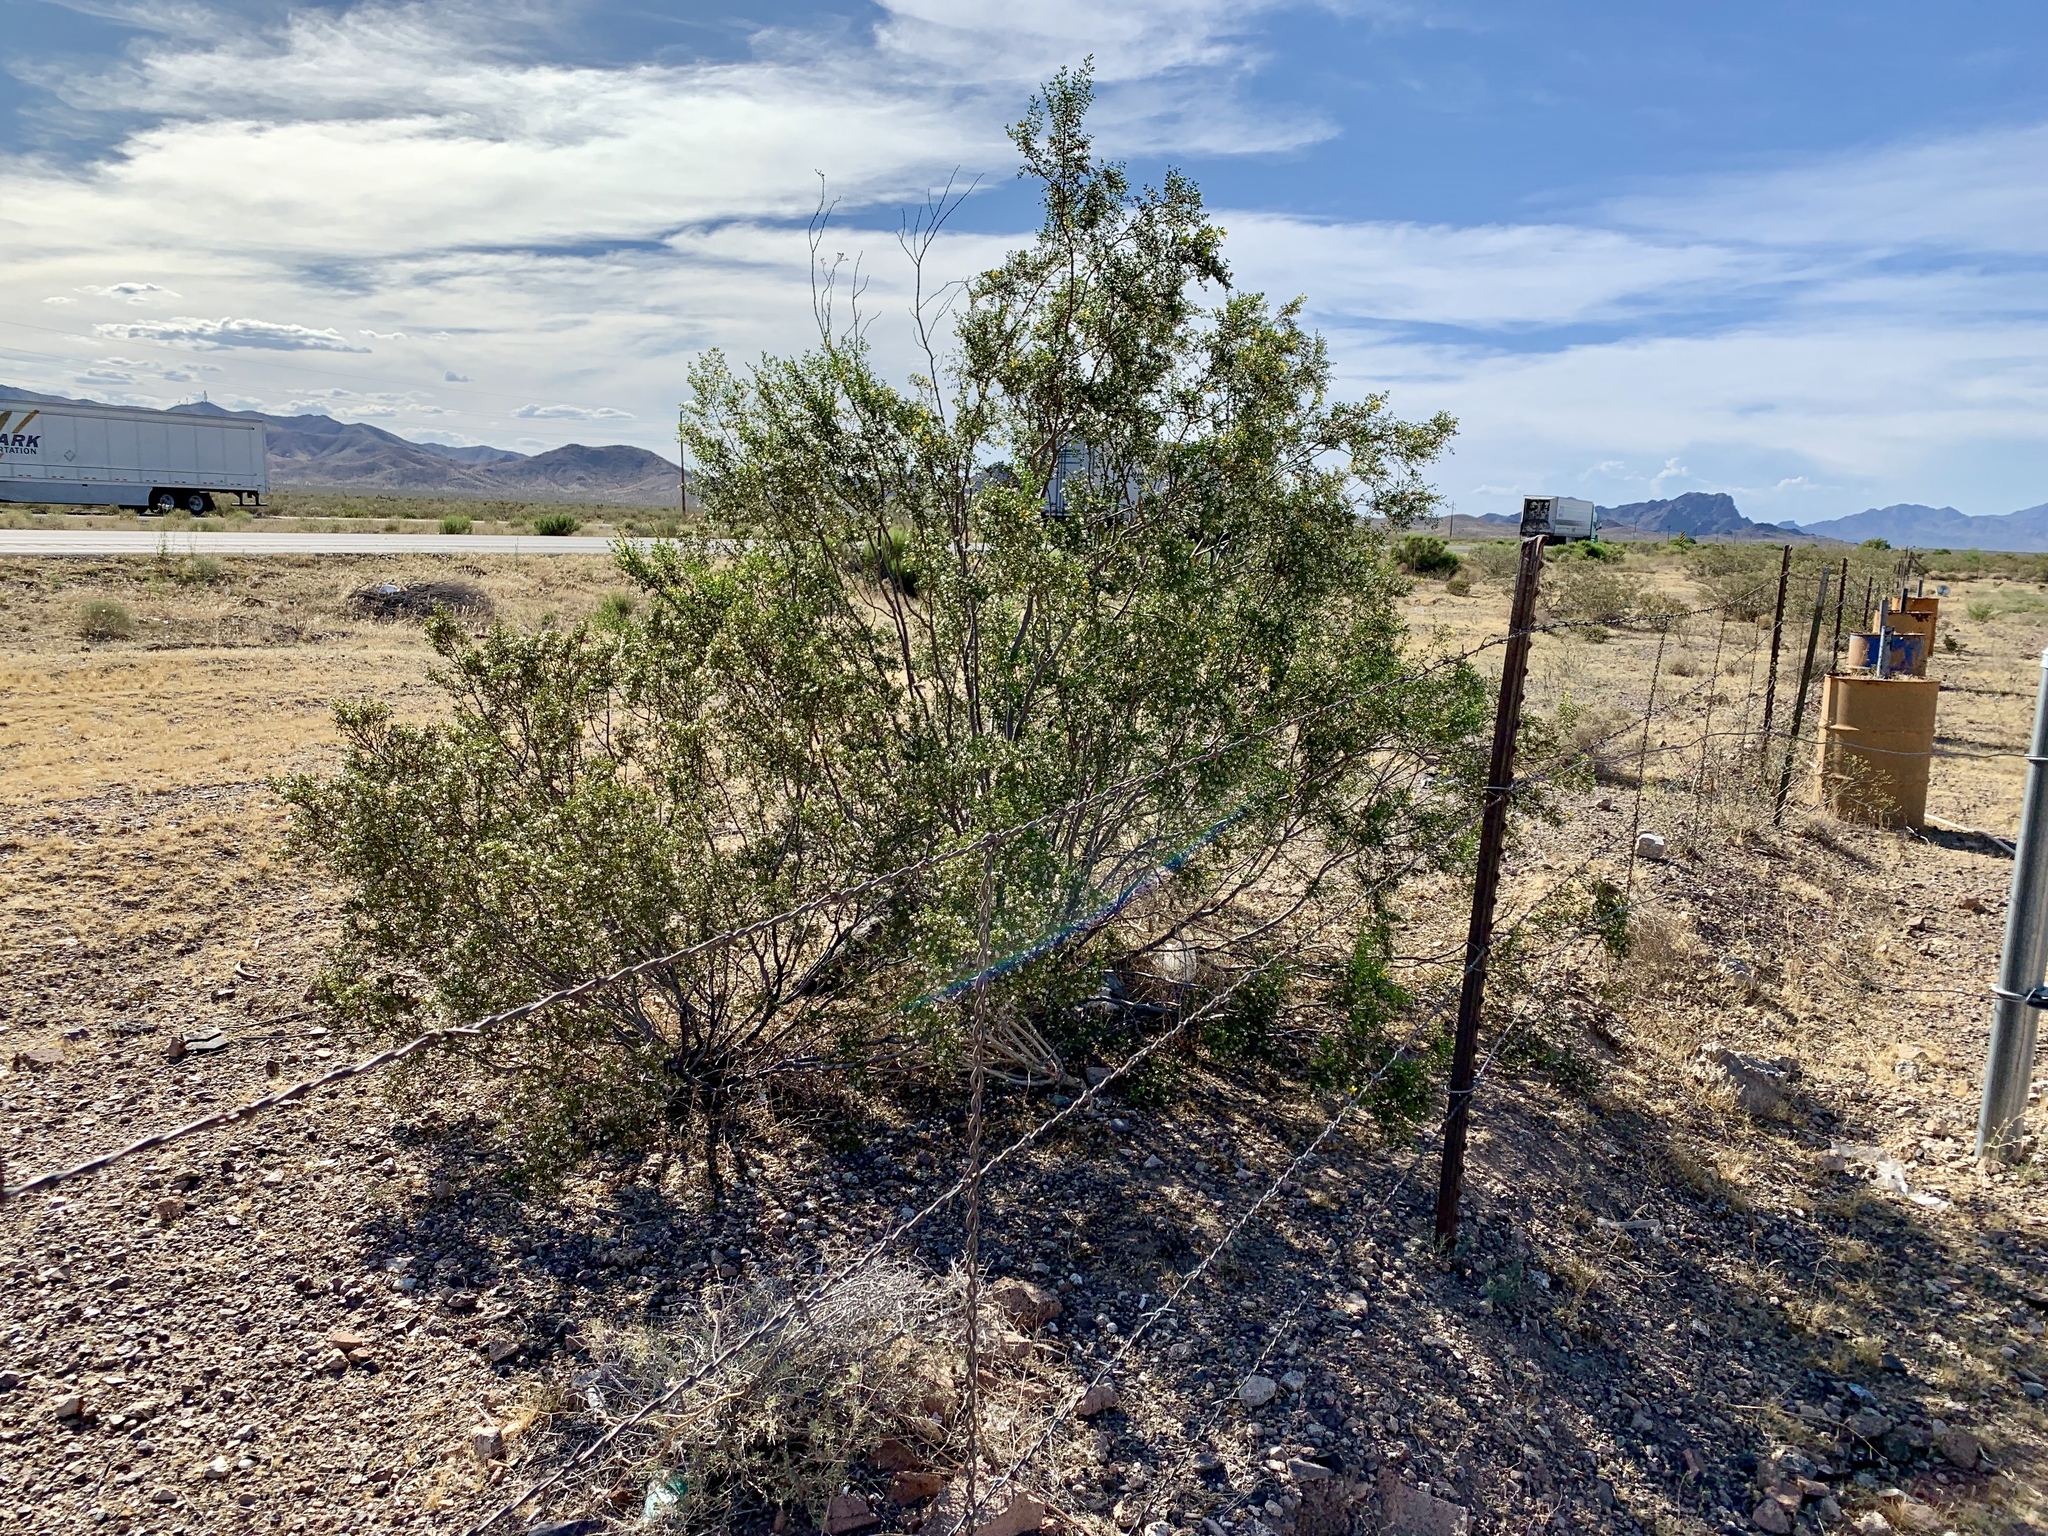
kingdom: Plantae
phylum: Tracheophyta
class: Magnoliopsida
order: Zygophyllales
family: Zygophyllaceae
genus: Larrea
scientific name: Larrea tridentata
